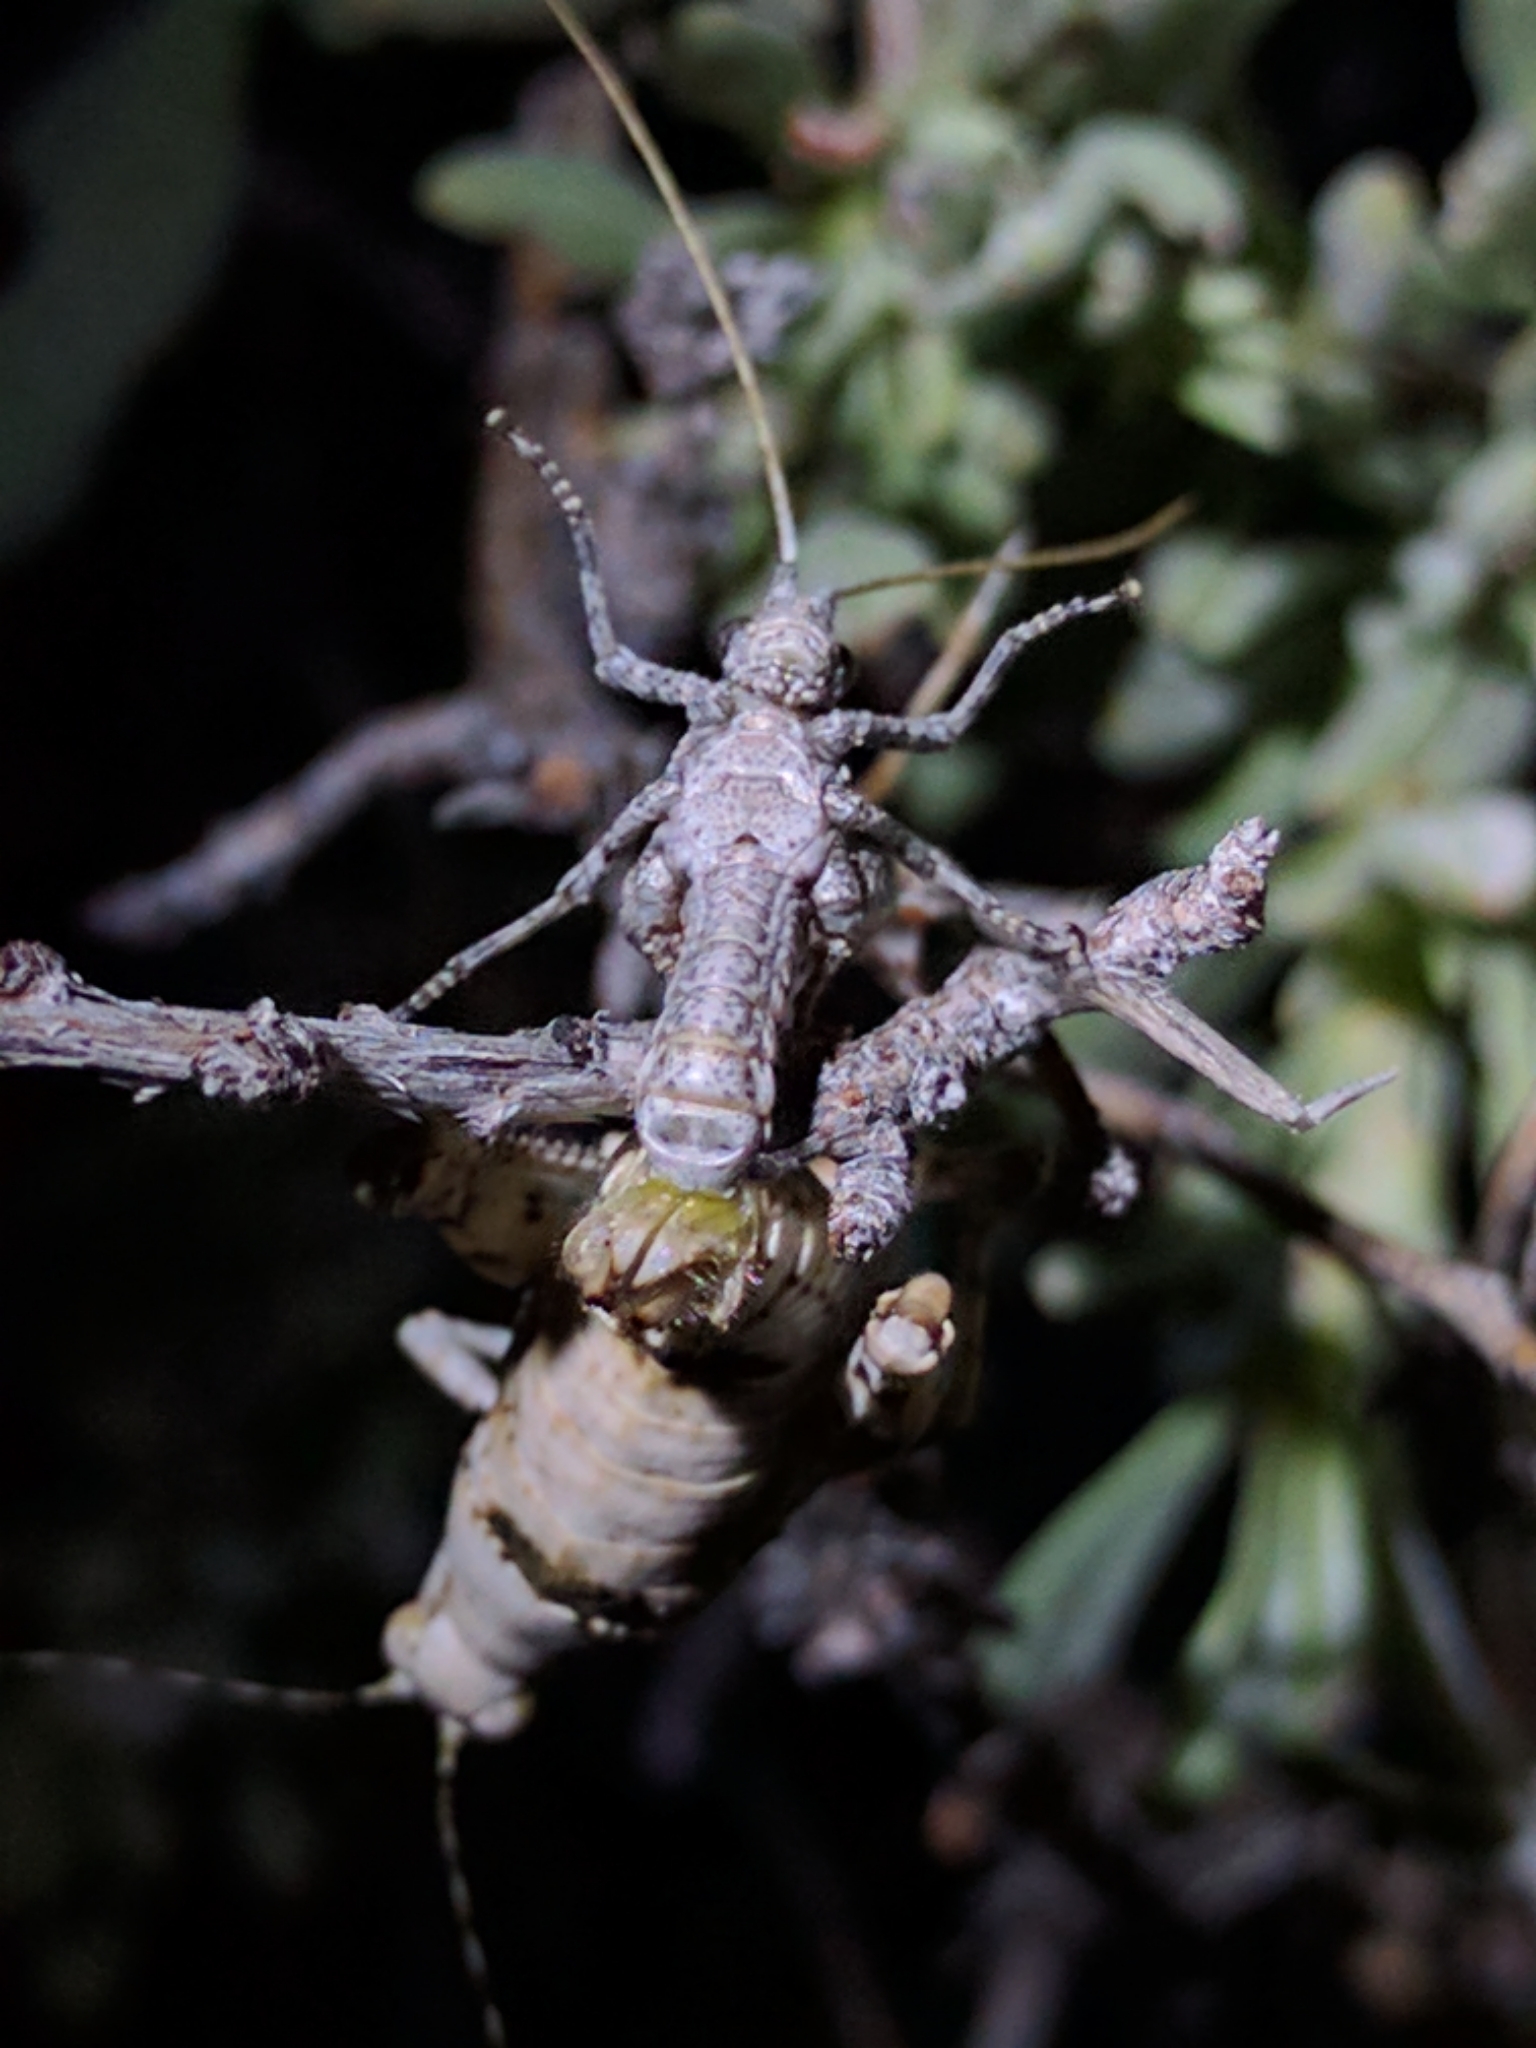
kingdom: Animalia
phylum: Arthropoda
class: Insecta
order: Orthoptera
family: Tanaoceridae
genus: Tanaocerus
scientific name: Tanaocerus koebelei
